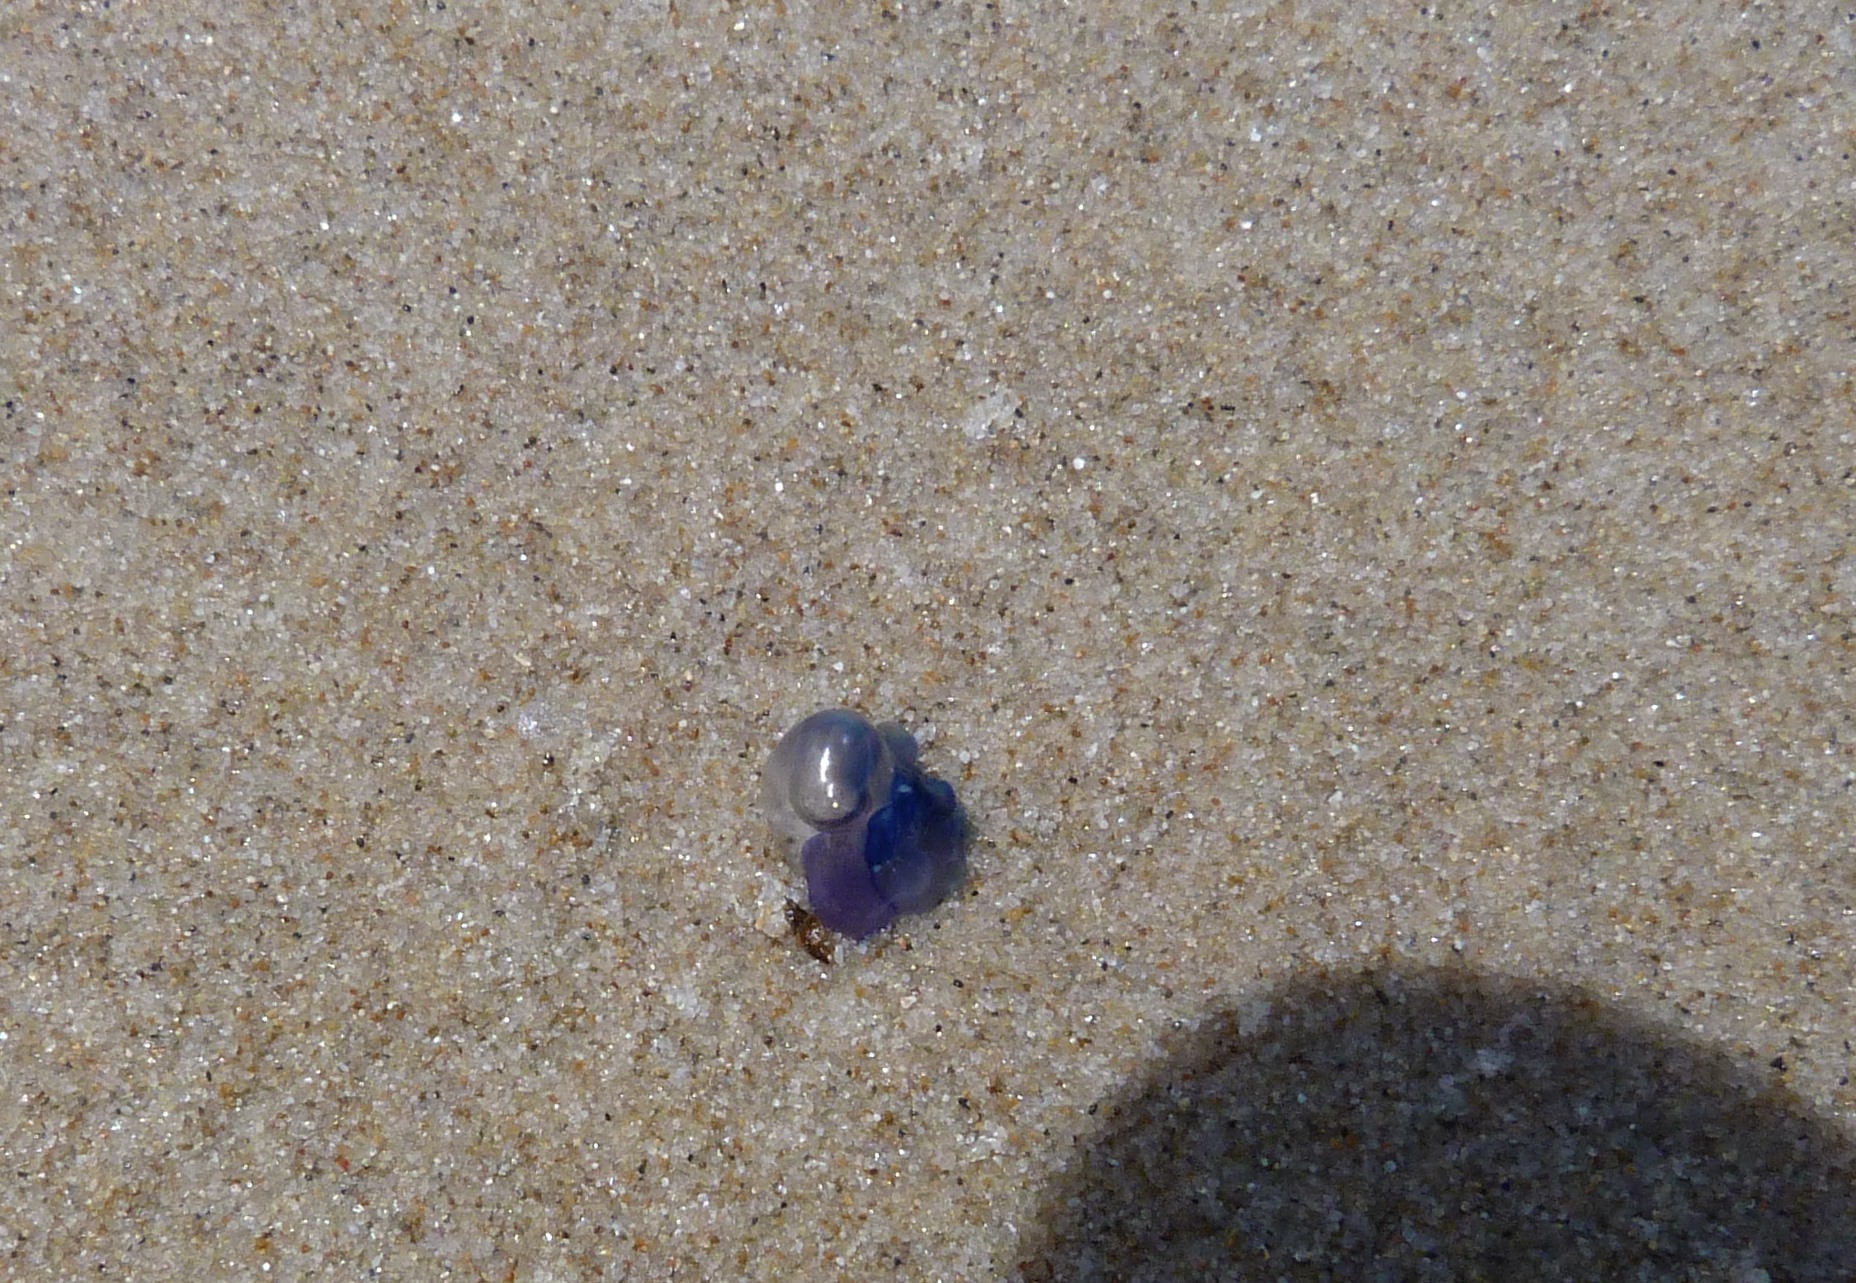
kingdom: Animalia
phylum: Cnidaria
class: Hydrozoa
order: Siphonophorae
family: Physaliidae
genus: Physalia
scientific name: Physalia physalis
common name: Portuguese man-of-war
